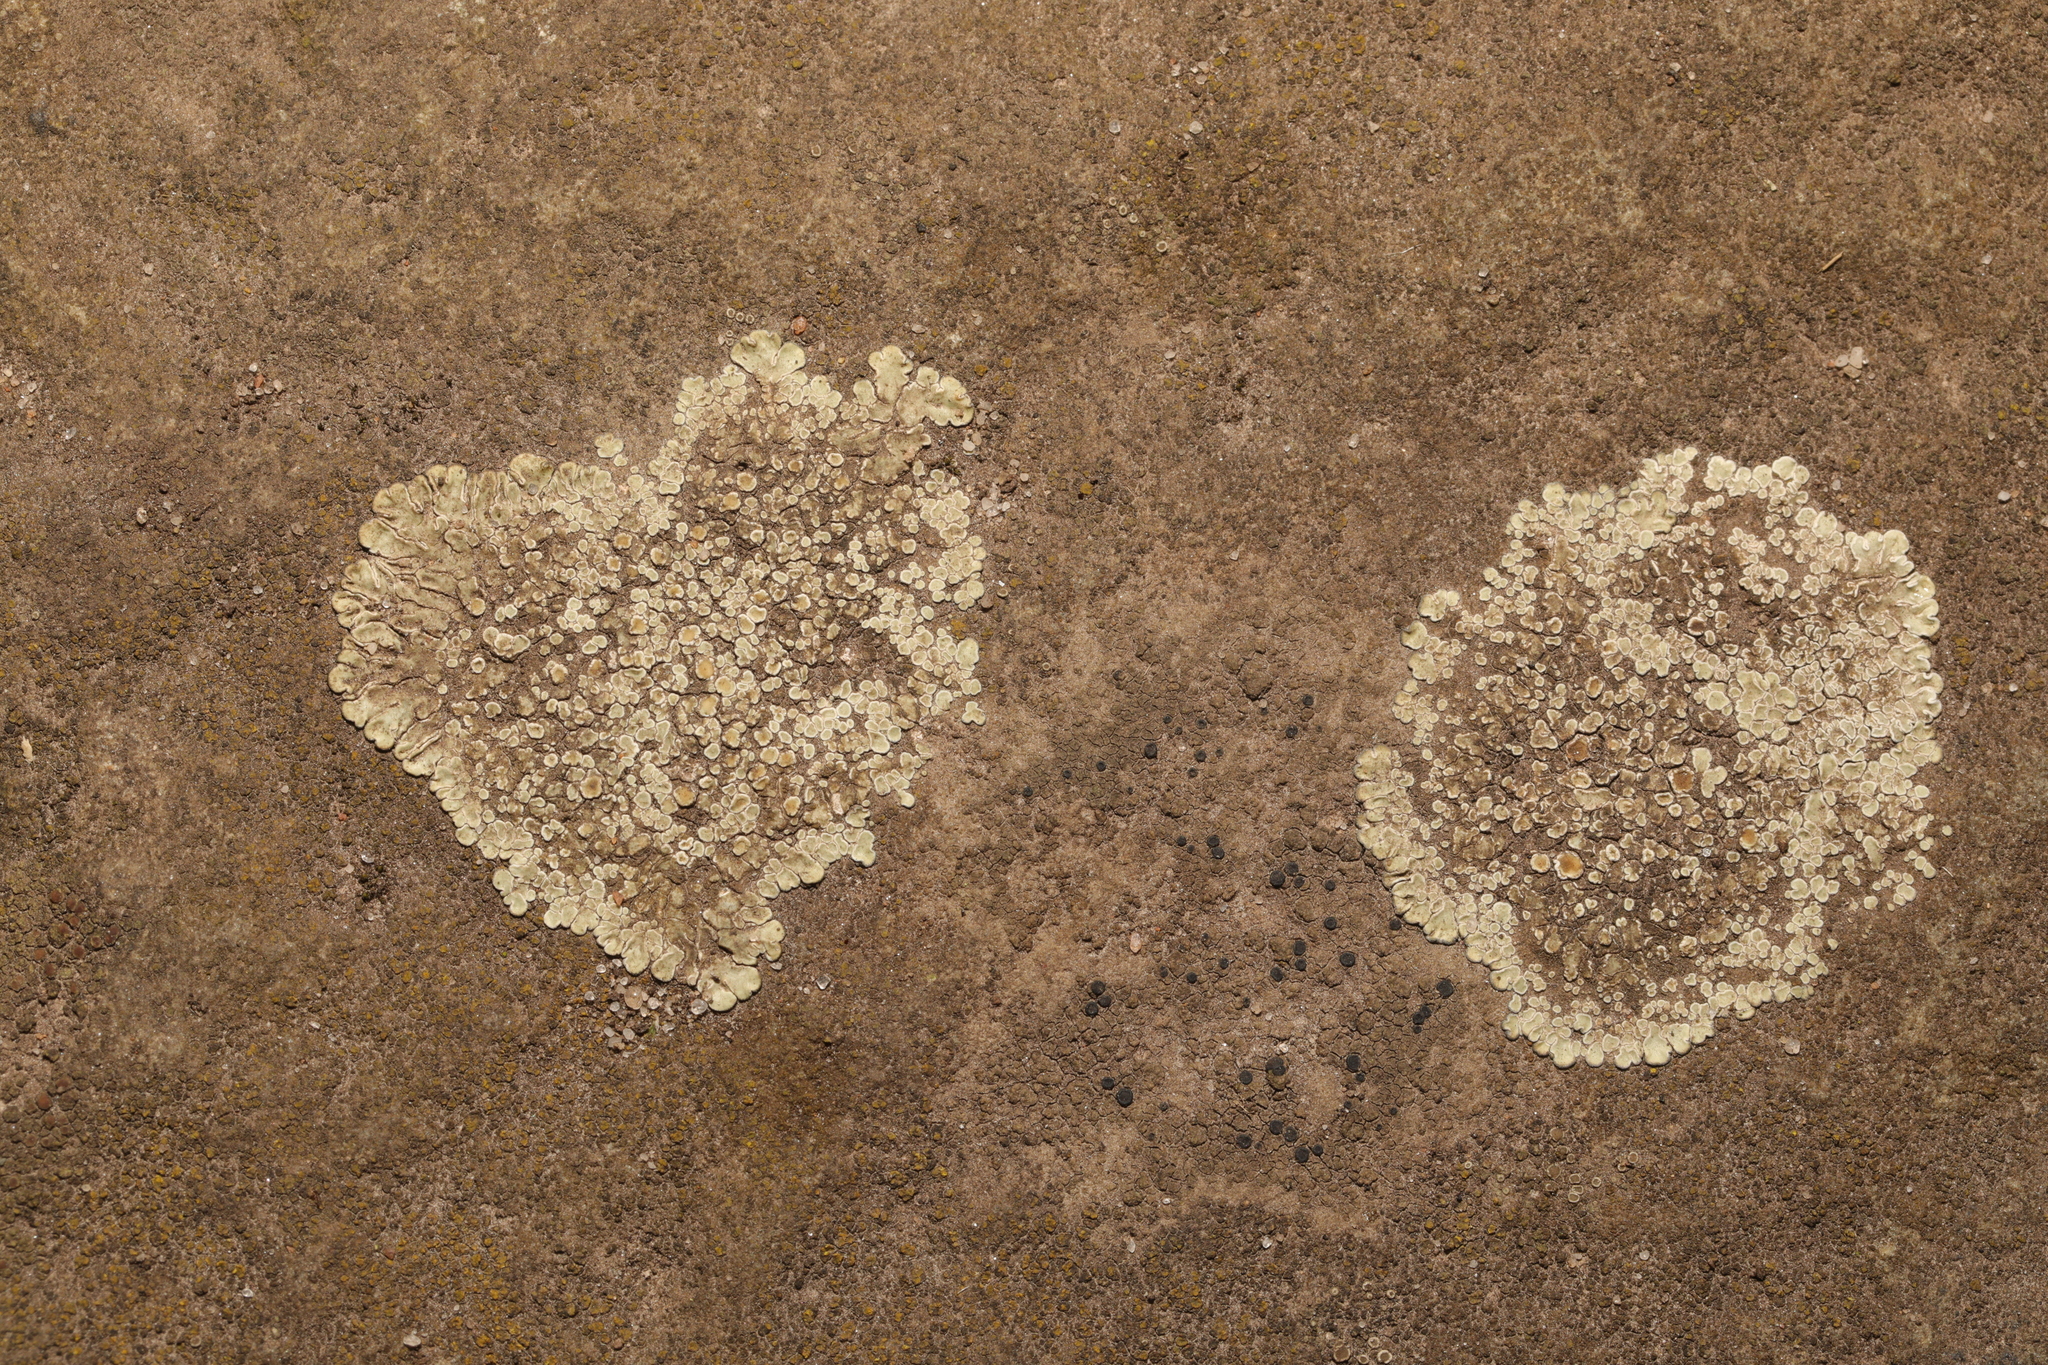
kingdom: Fungi
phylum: Ascomycota
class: Lecanoromycetes
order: Lecanorales
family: Lecanoraceae
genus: Protoparmeliopsis
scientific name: Protoparmeliopsis muralis
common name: Stonewall rim lichen
